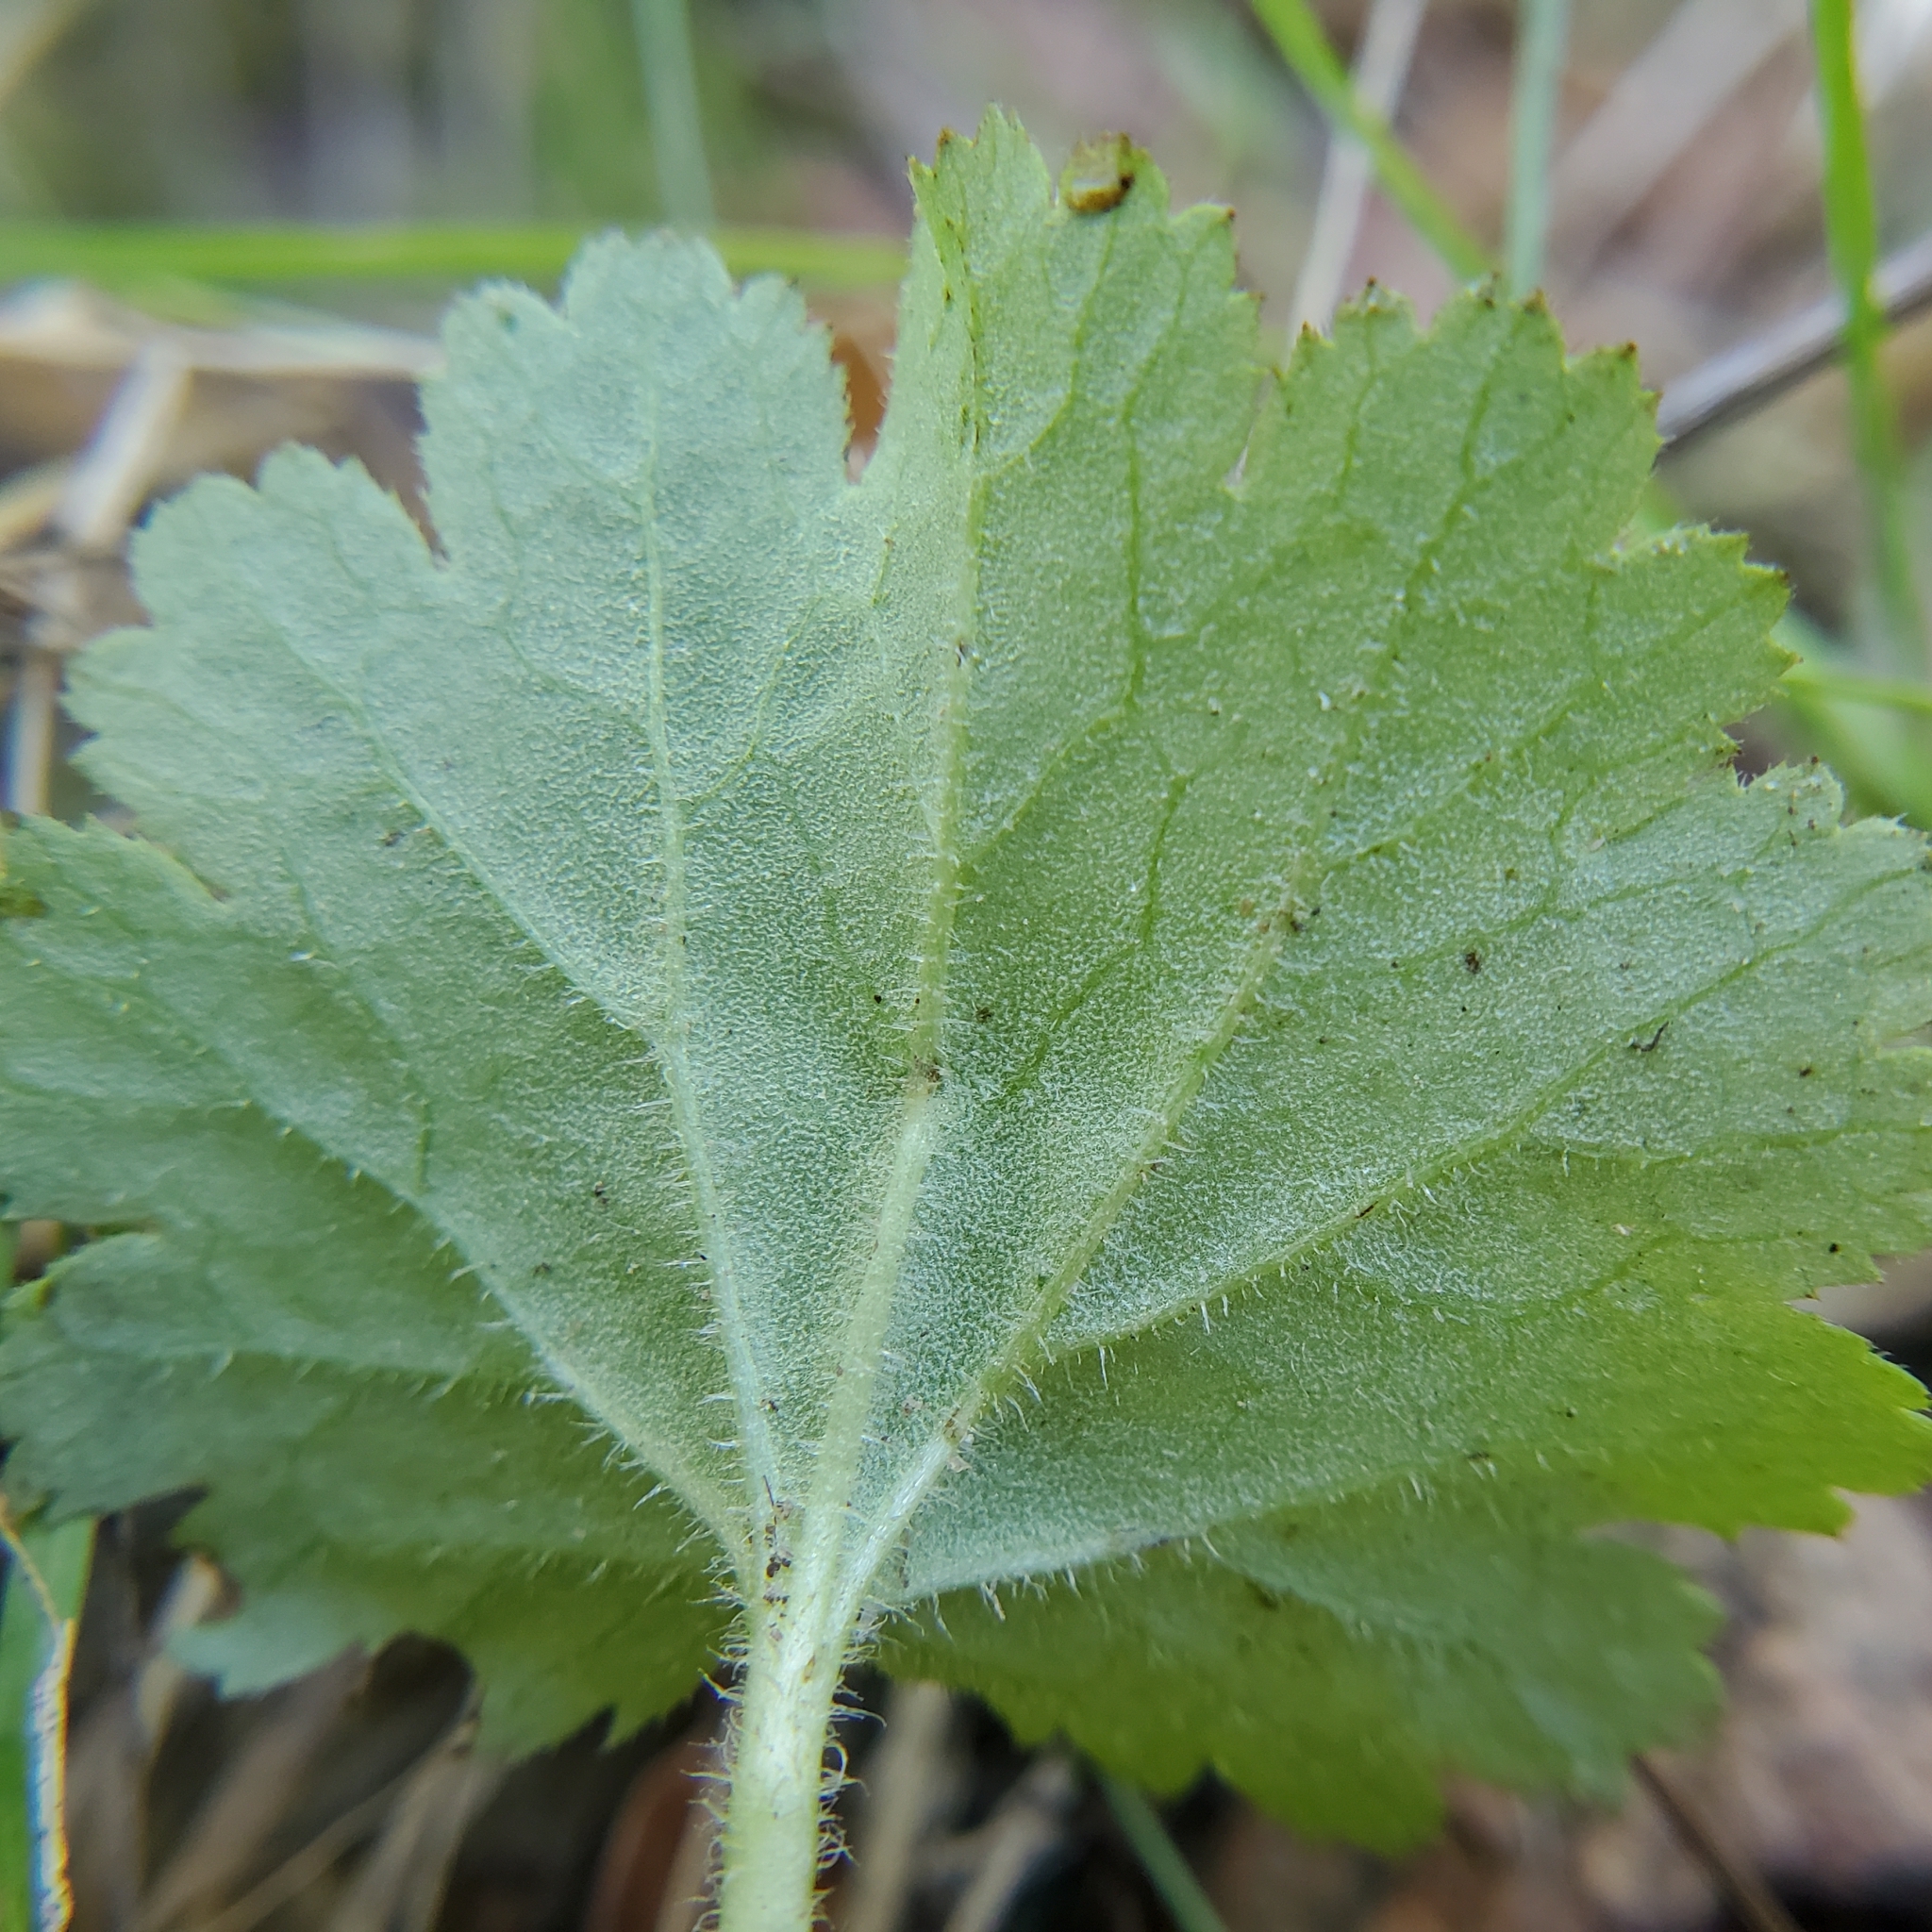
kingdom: Plantae
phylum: Tracheophyta
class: Magnoliopsida
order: Saxifragales
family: Saxifragaceae
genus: Jepsonia
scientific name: Jepsonia parryi
